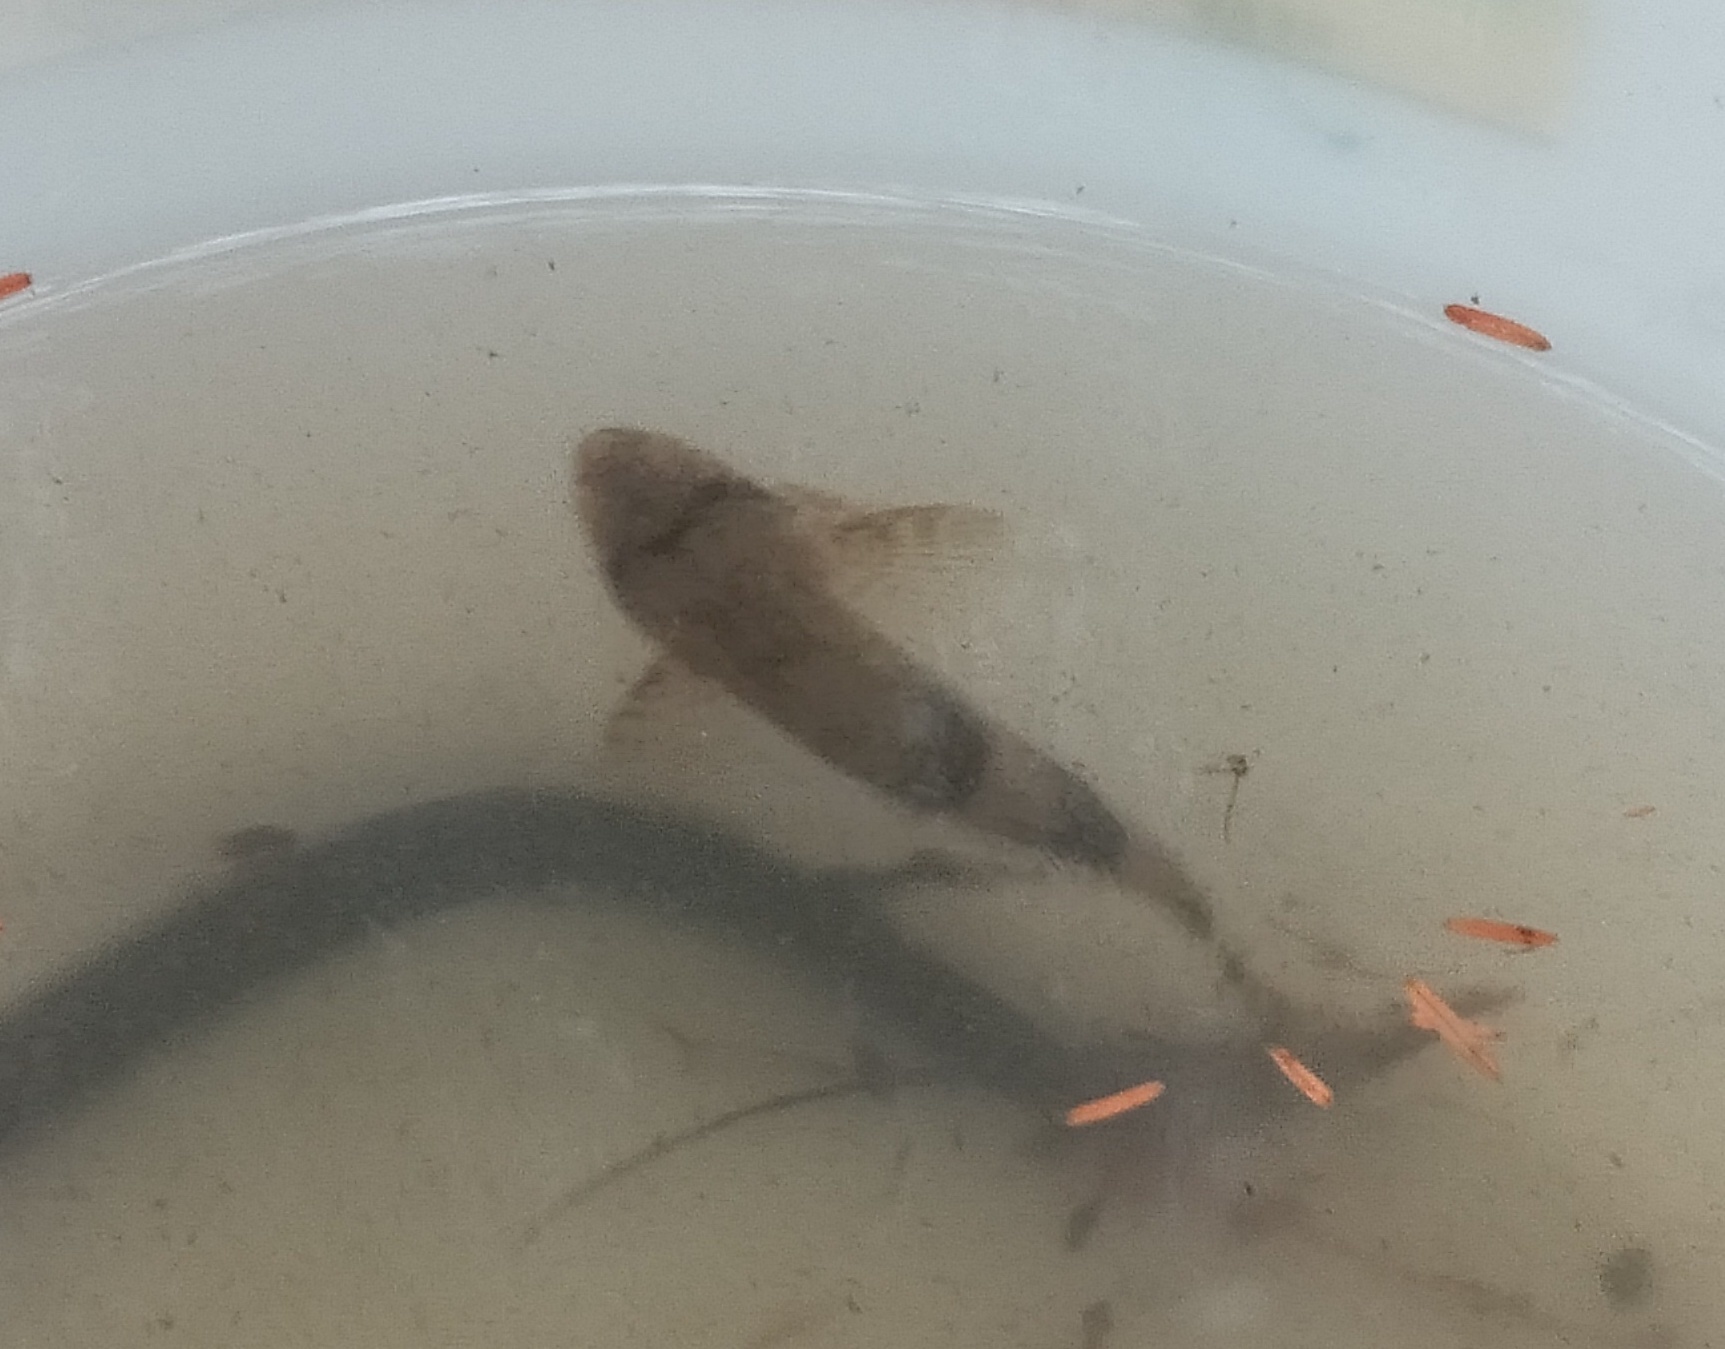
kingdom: Animalia
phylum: Chordata
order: Perciformes
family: Cheimarrichthyidae
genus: Cheimarrichthys
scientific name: Cheimarrichthys fosterae
